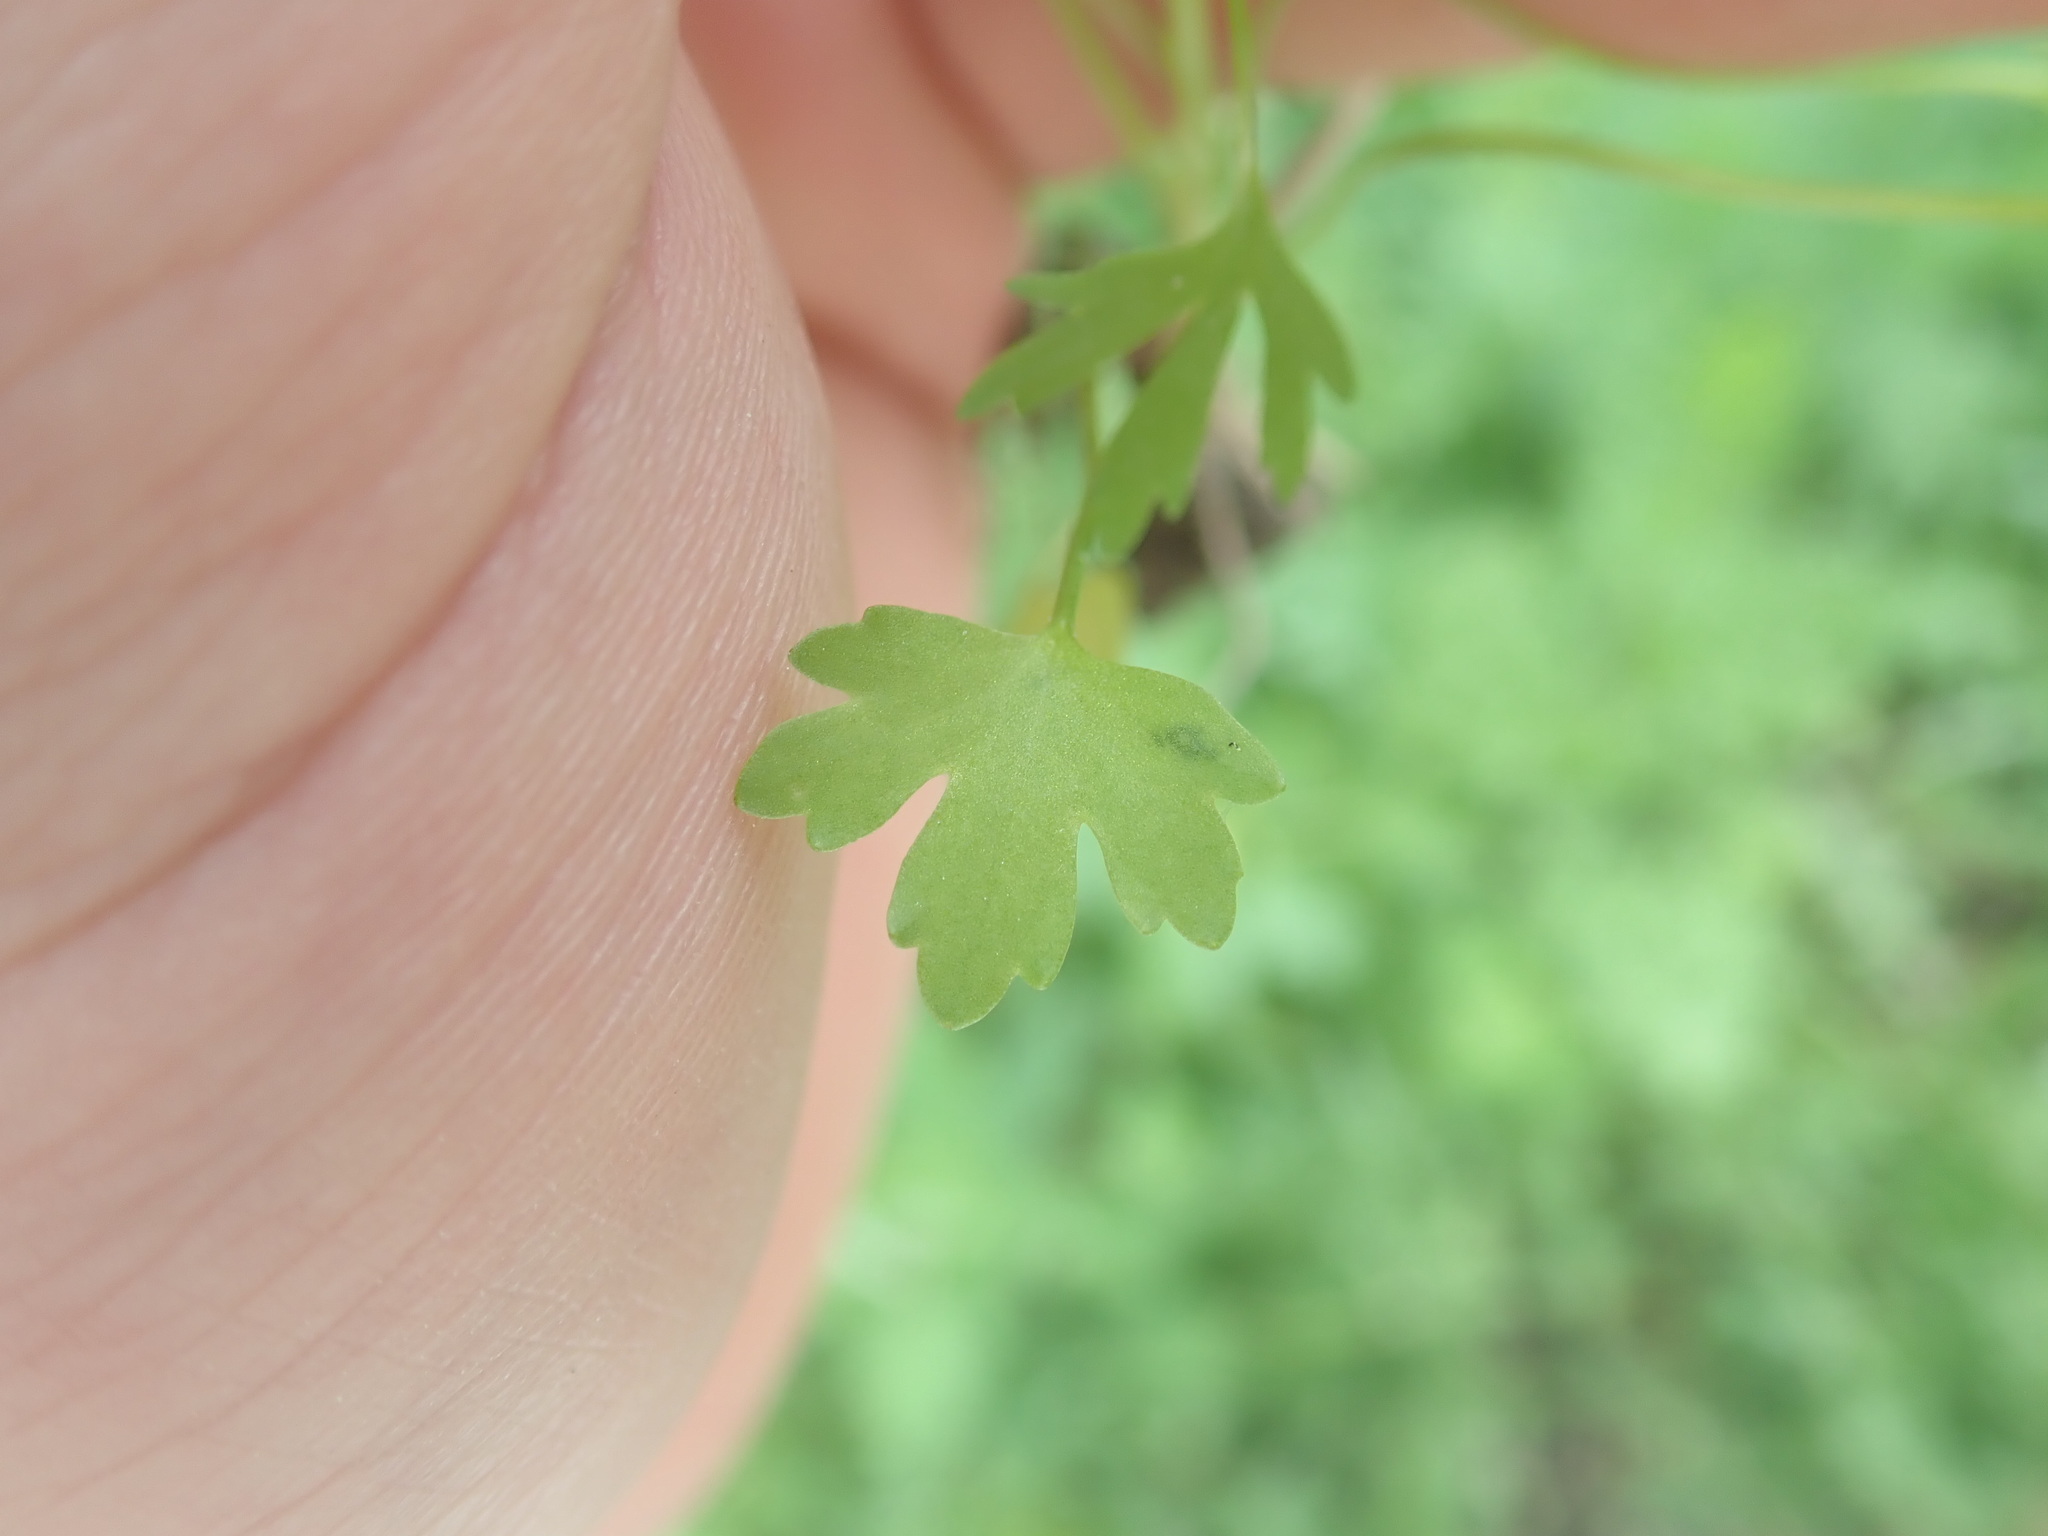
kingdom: Plantae
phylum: Tracheophyta
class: Magnoliopsida
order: Ranunculales
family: Ranunculaceae
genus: Ranunculus
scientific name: Ranunculus sceleratus
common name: Celery-leaved buttercup
